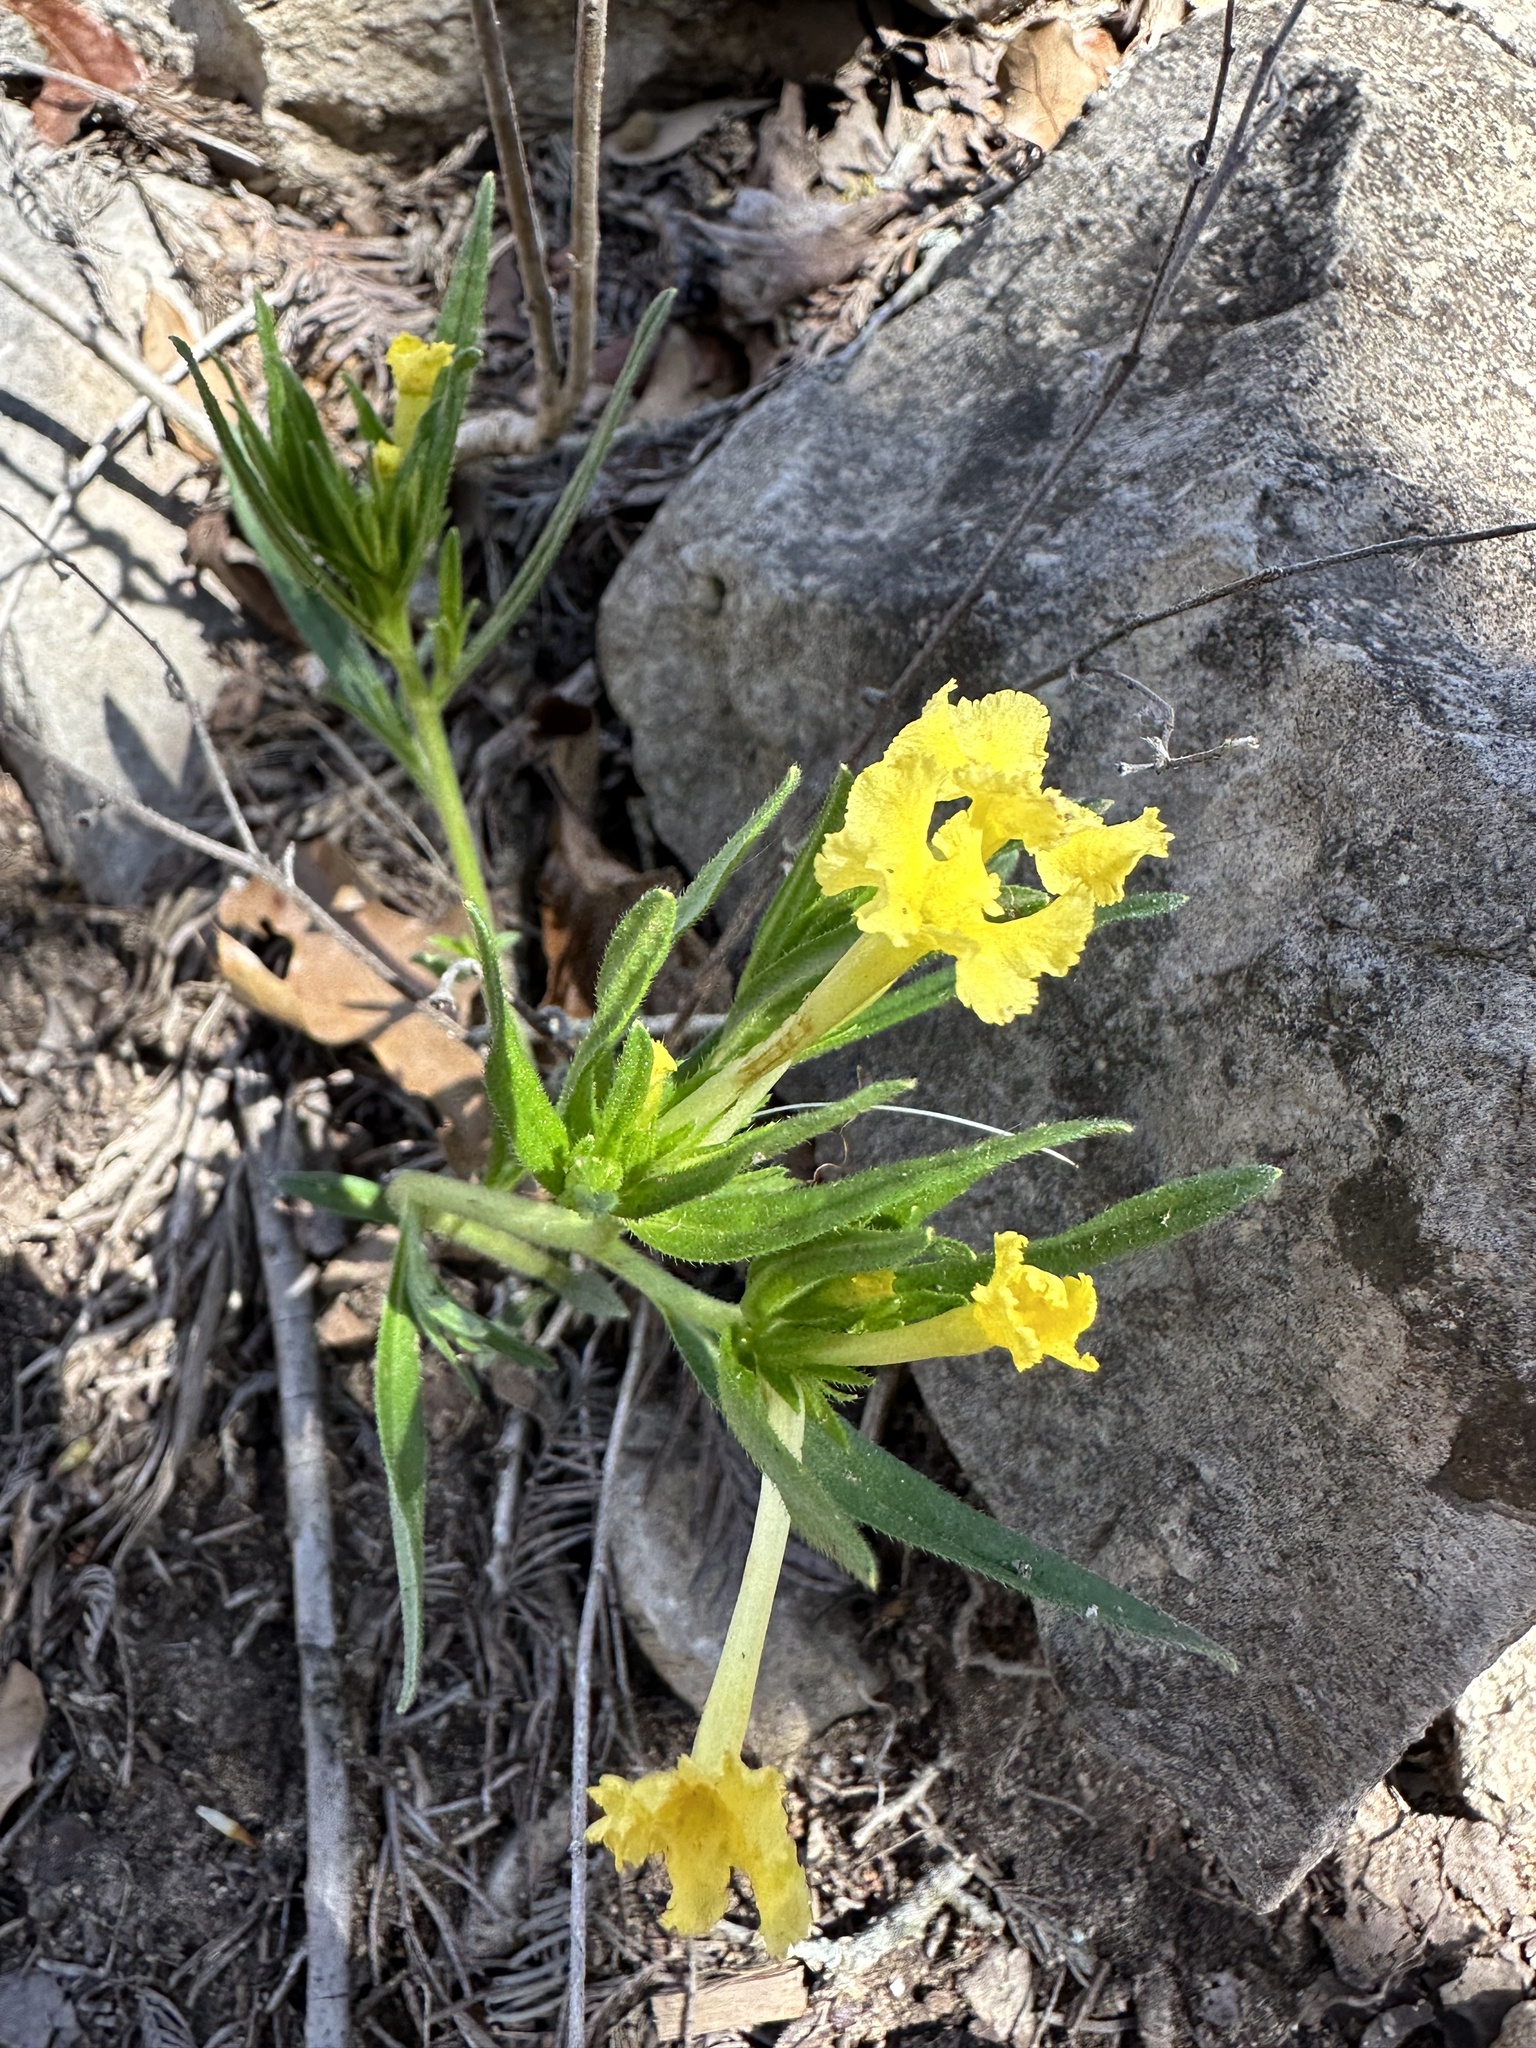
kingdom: Plantae
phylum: Tracheophyta
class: Magnoliopsida
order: Boraginales
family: Boraginaceae
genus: Lithospermum
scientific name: Lithospermum incisum
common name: Fringed gromwell
